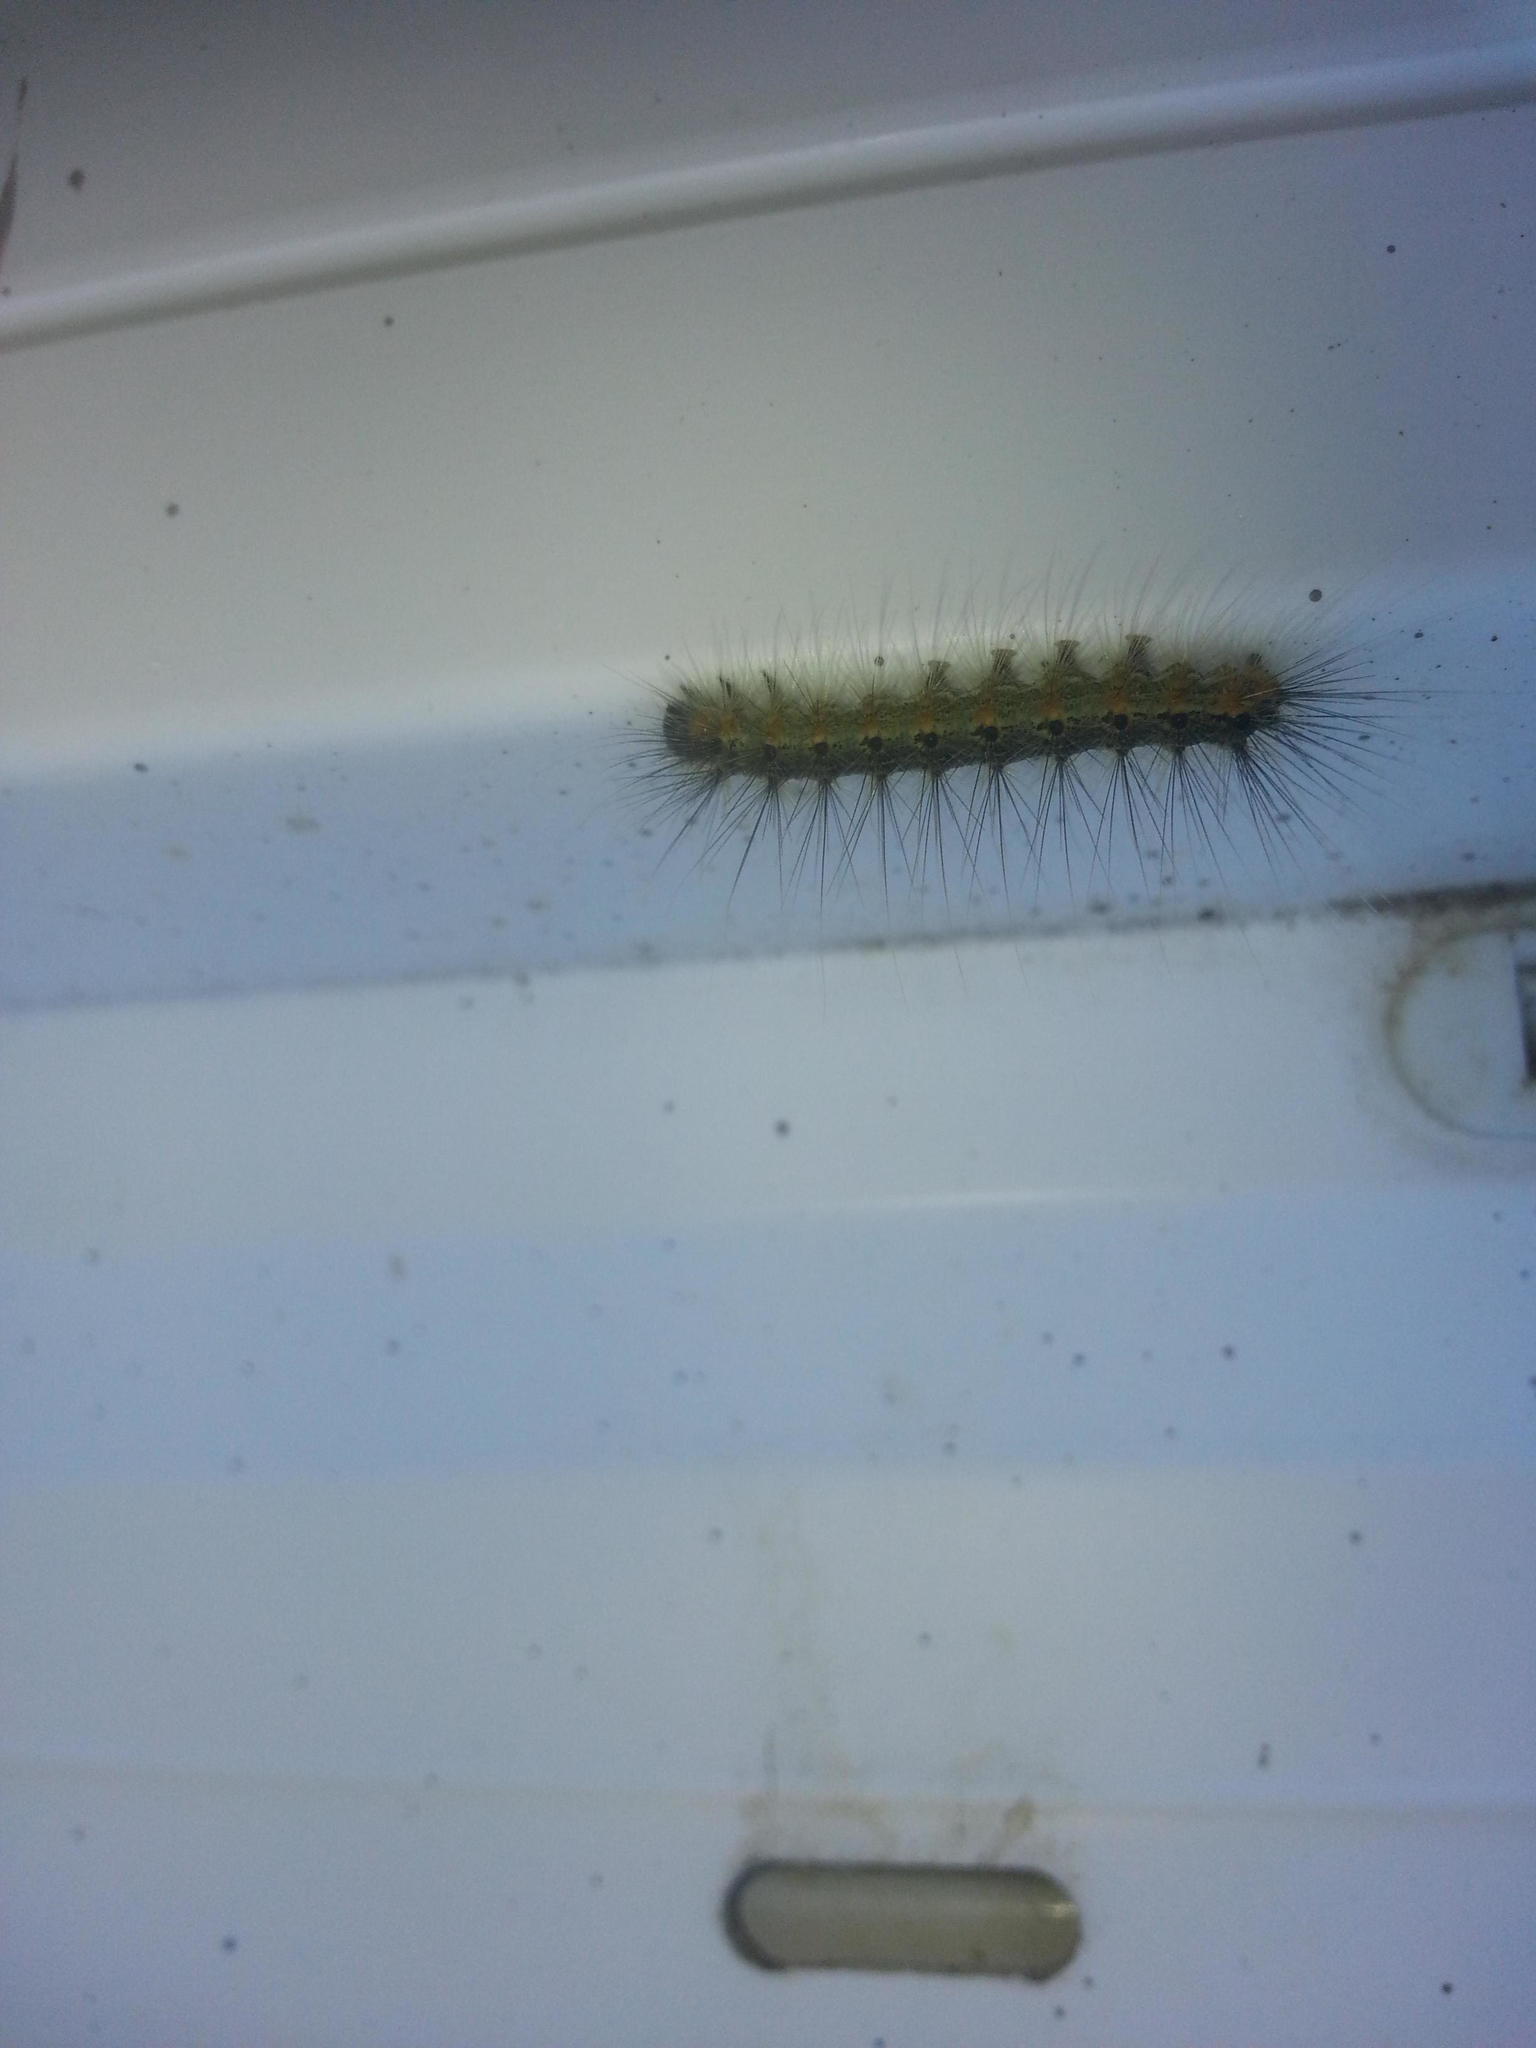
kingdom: Animalia
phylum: Arthropoda
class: Insecta
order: Lepidoptera
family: Erebidae
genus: Hyphantria
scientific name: Hyphantria cunea
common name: American white moth
